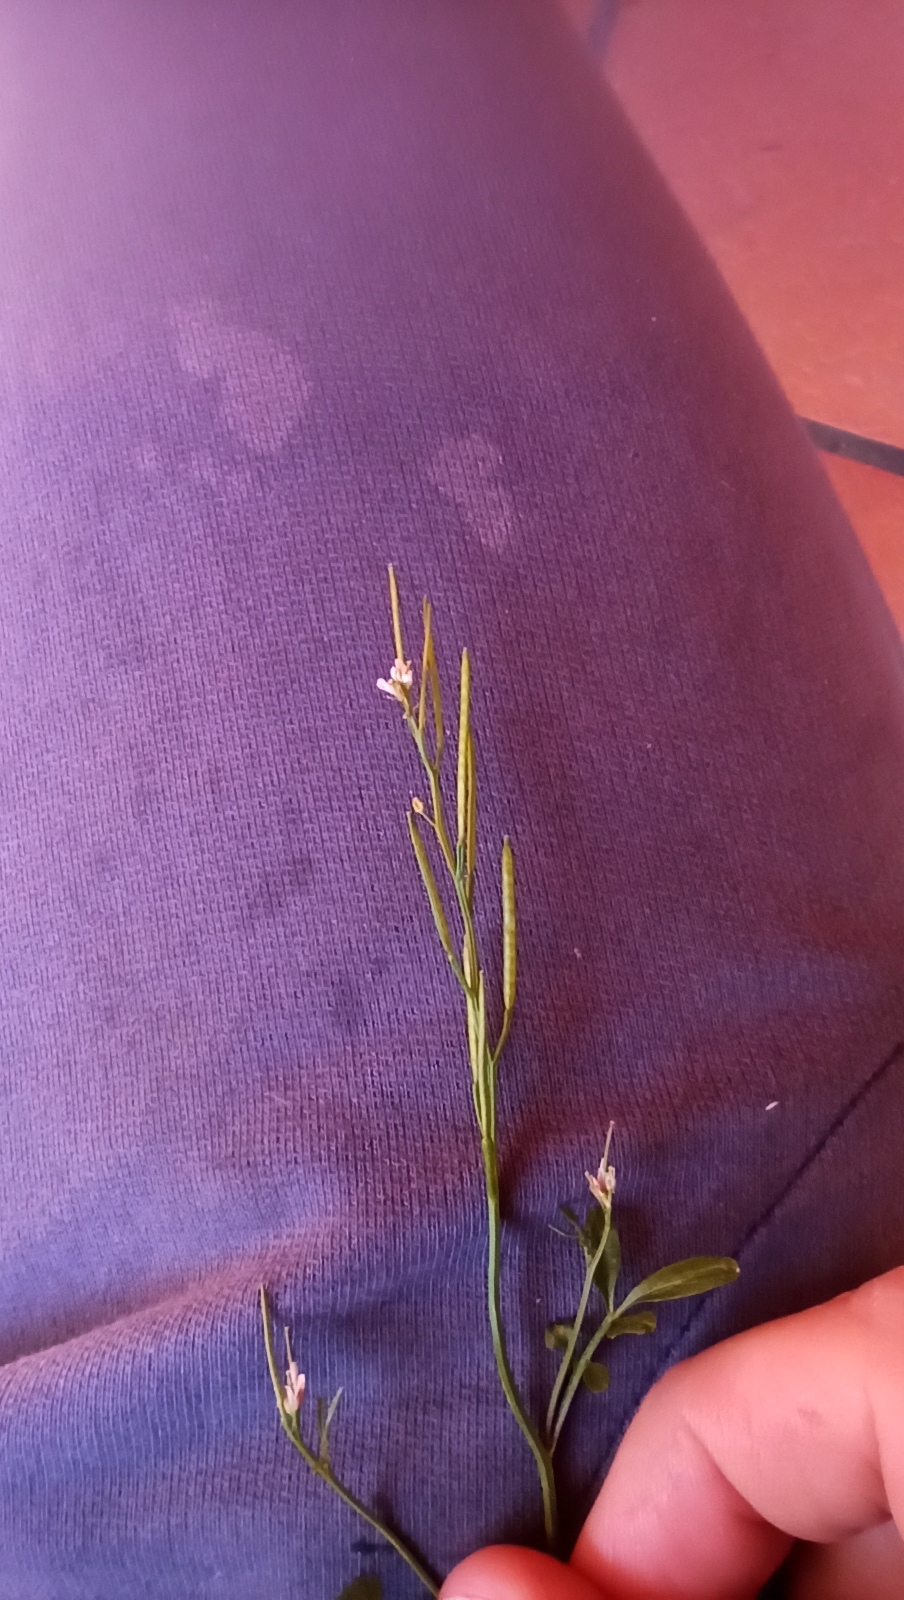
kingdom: Plantae
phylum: Tracheophyta
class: Magnoliopsida
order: Brassicales
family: Brassicaceae
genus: Cardamine
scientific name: Cardamine hirsuta
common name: Hairy bittercress
